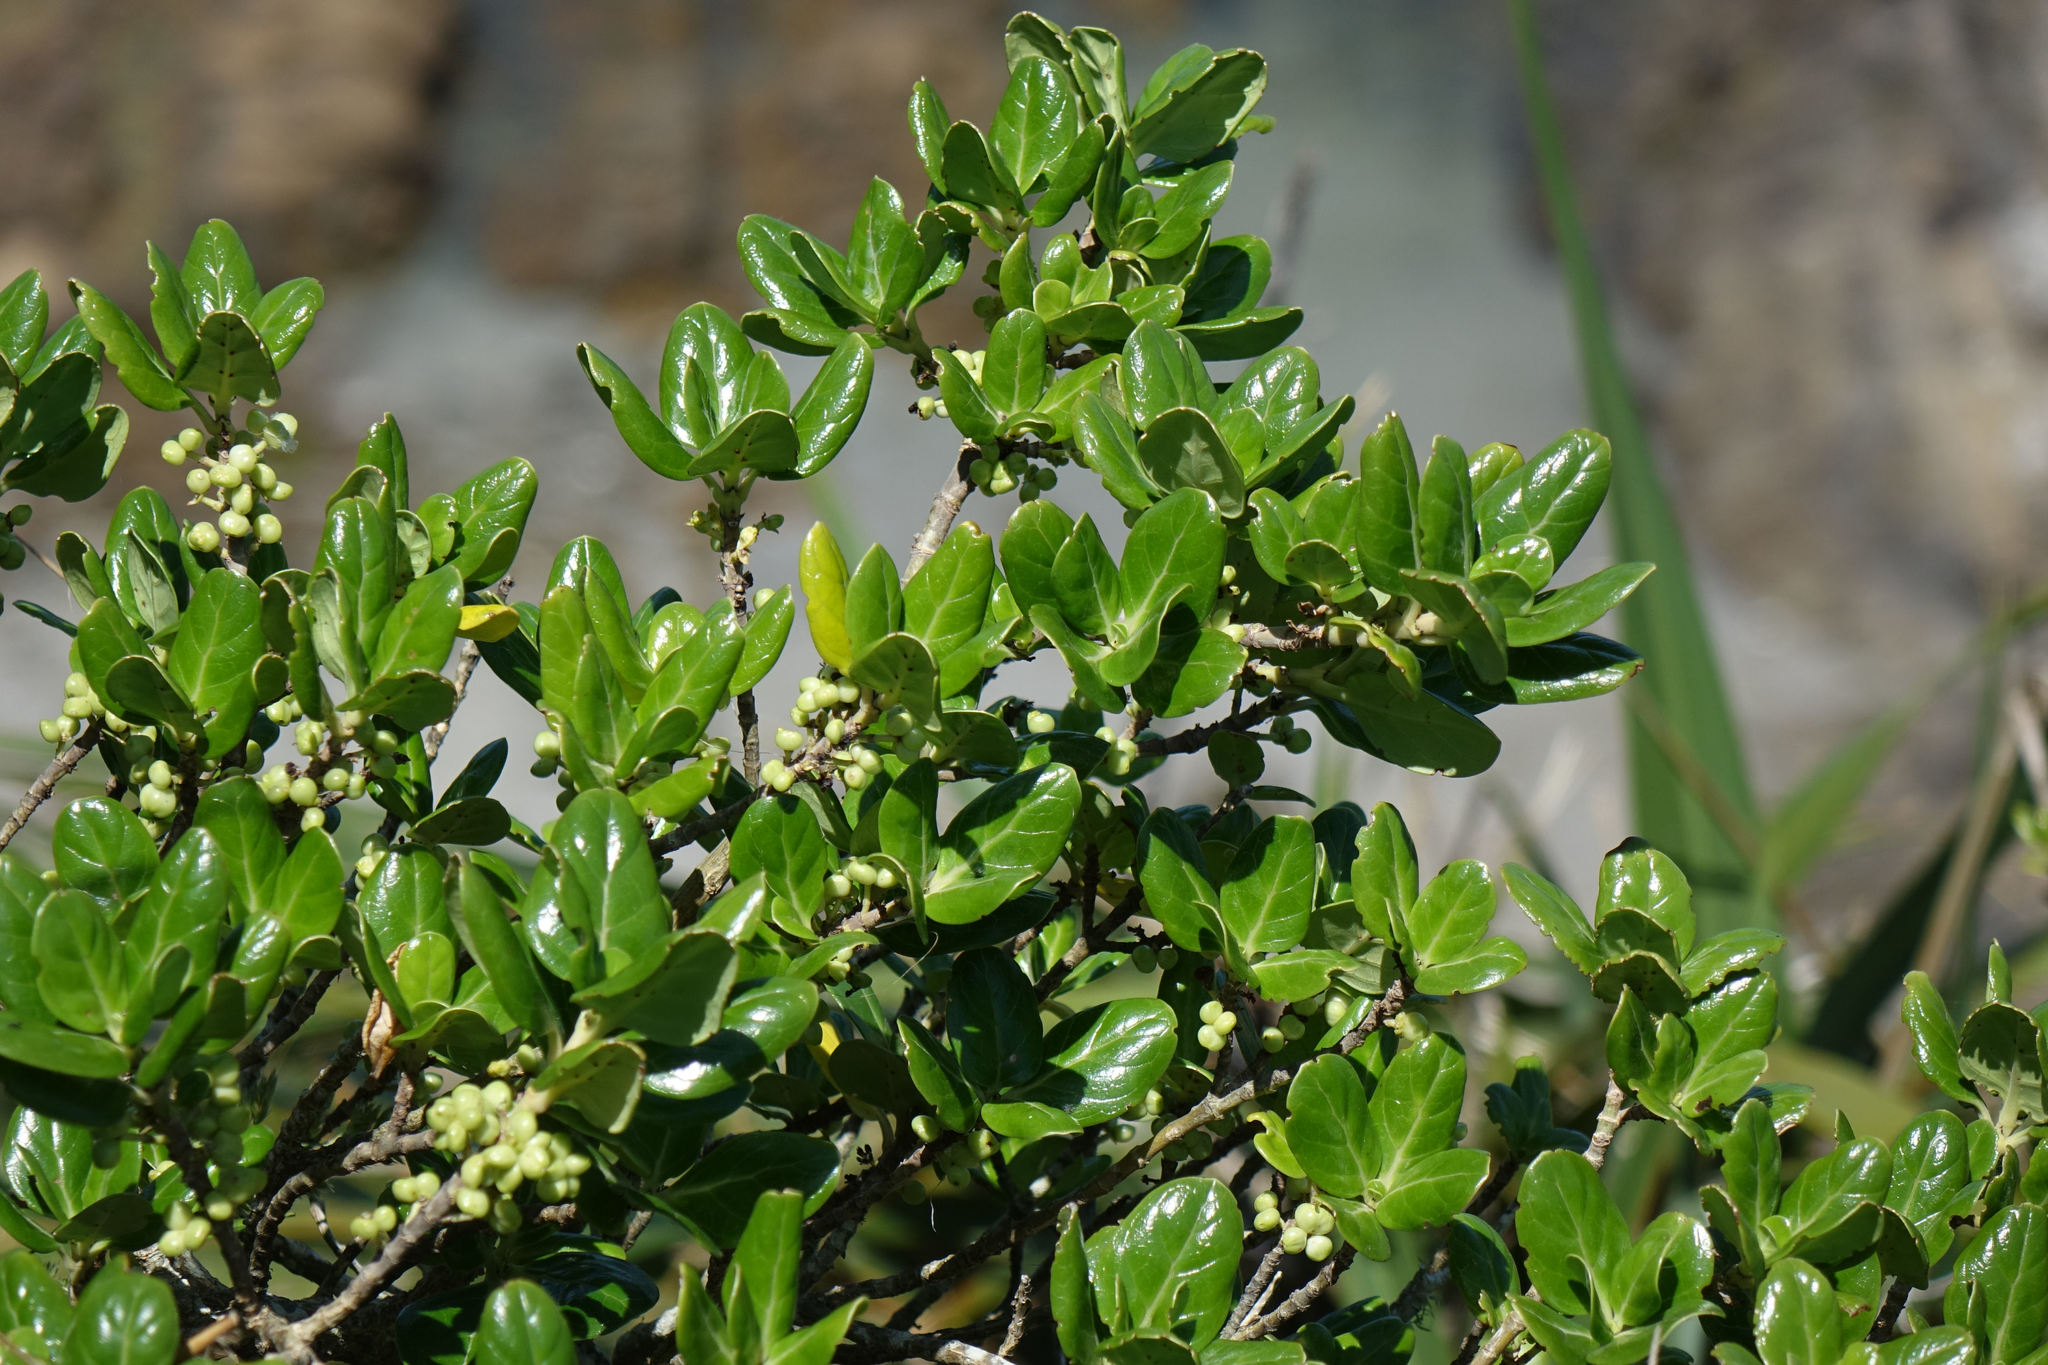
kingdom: Plantae
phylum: Tracheophyta
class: Magnoliopsida
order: Gentianales
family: Rubiaceae
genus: Coprosma
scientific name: Coprosma repens
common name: Tree bedstraw
